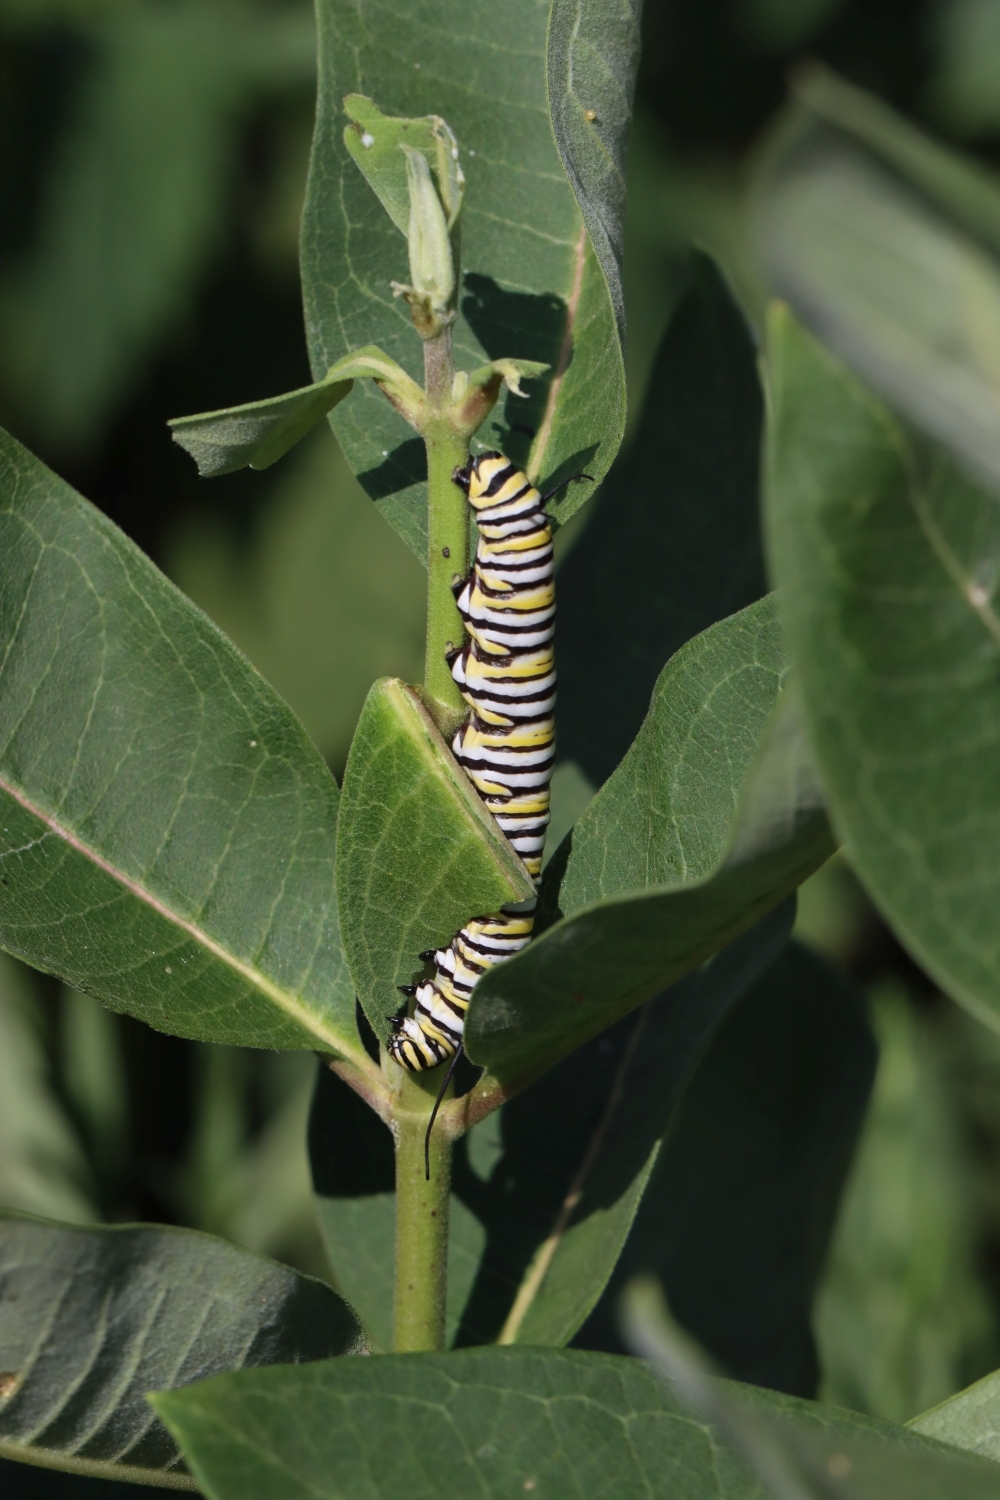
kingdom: Animalia
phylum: Arthropoda
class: Insecta
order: Lepidoptera
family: Nymphalidae
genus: Danaus
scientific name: Danaus plexippus
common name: Monarch
